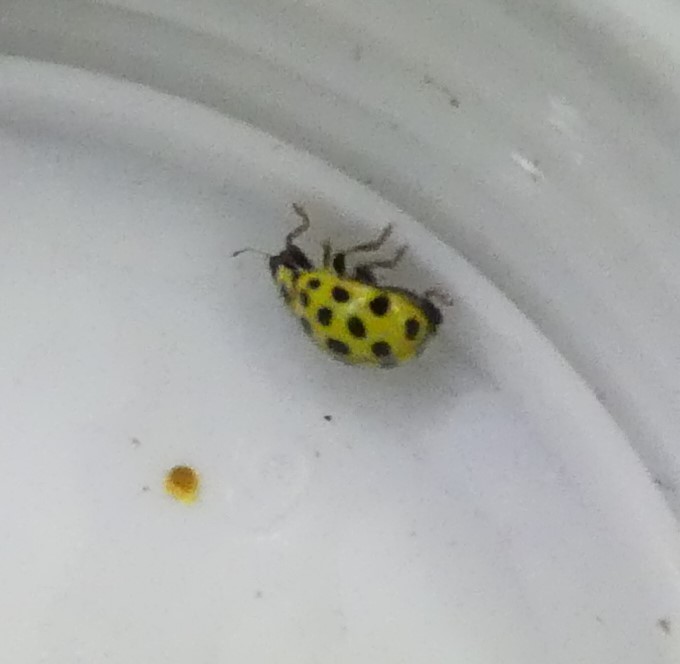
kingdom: Animalia
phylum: Arthropoda
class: Insecta
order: Coleoptera
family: Coccinellidae
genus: Psyllobora
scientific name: Psyllobora vigintiduopunctata
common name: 22-spot ladybird
